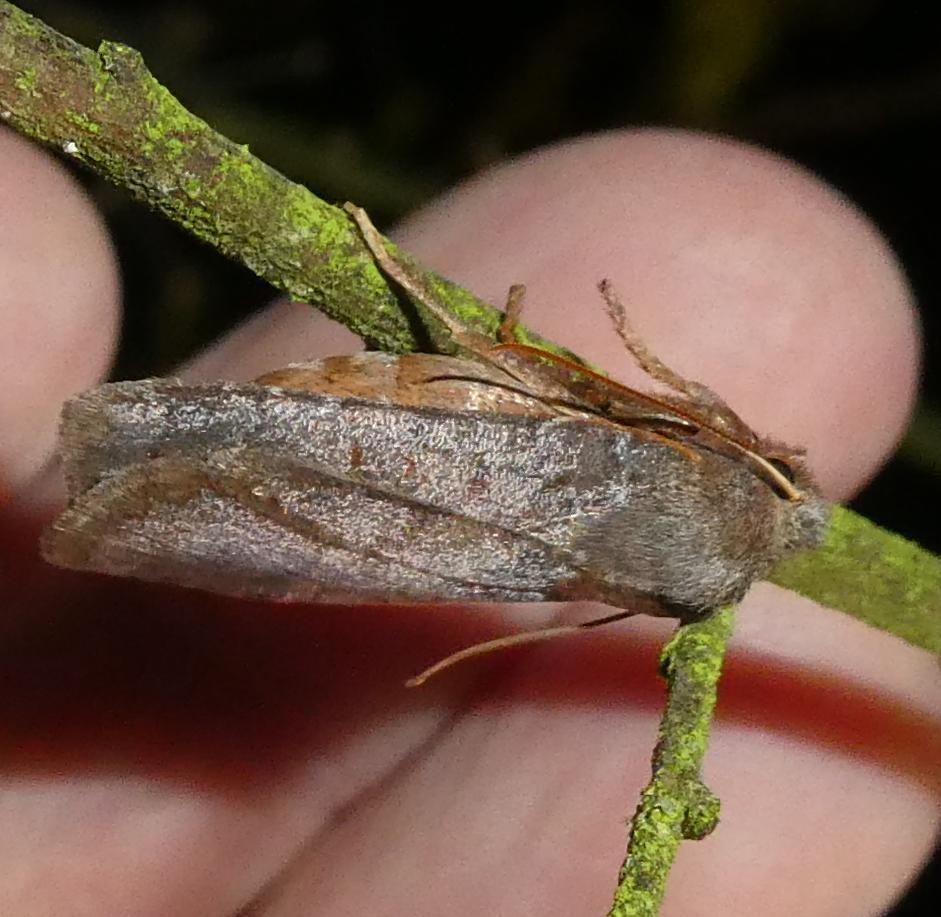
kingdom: Animalia
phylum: Arthropoda
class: Insecta
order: Lepidoptera
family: Noctuidae
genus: Conistra
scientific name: Conistra vaccinii
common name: Chestnut
